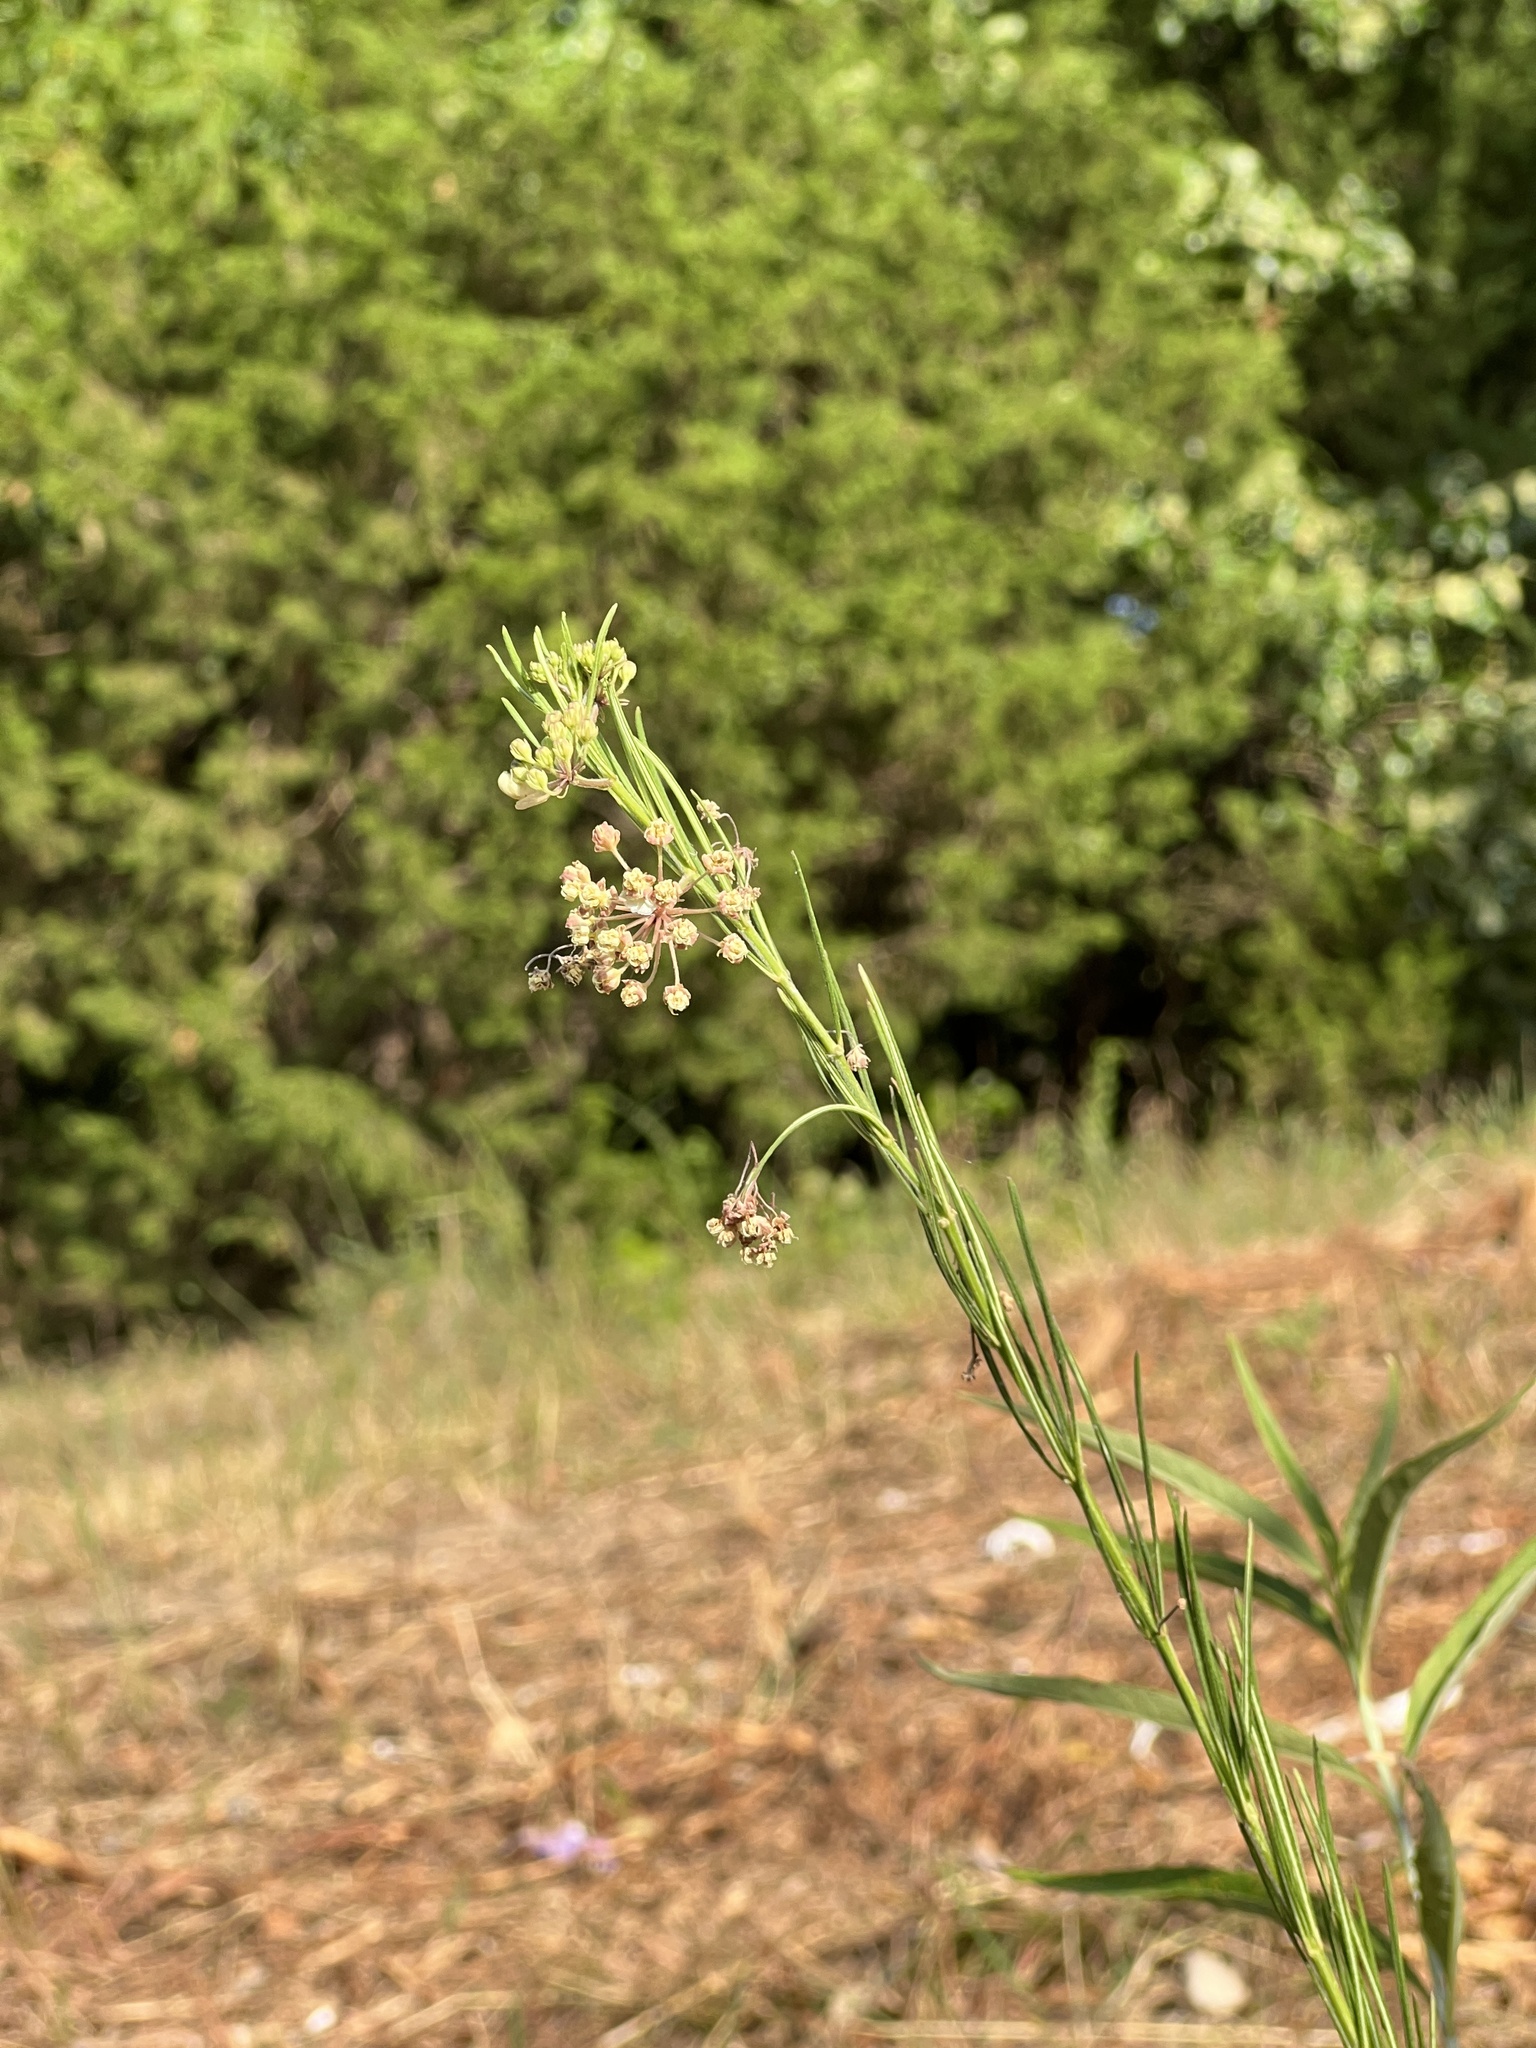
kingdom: Plantae
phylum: Tracheophyta
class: Magnoliopsida
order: Gentianales
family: Apocynaceae
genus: Asclepias
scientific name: Asclepias verticillata
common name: Eastern whorled milkweed
